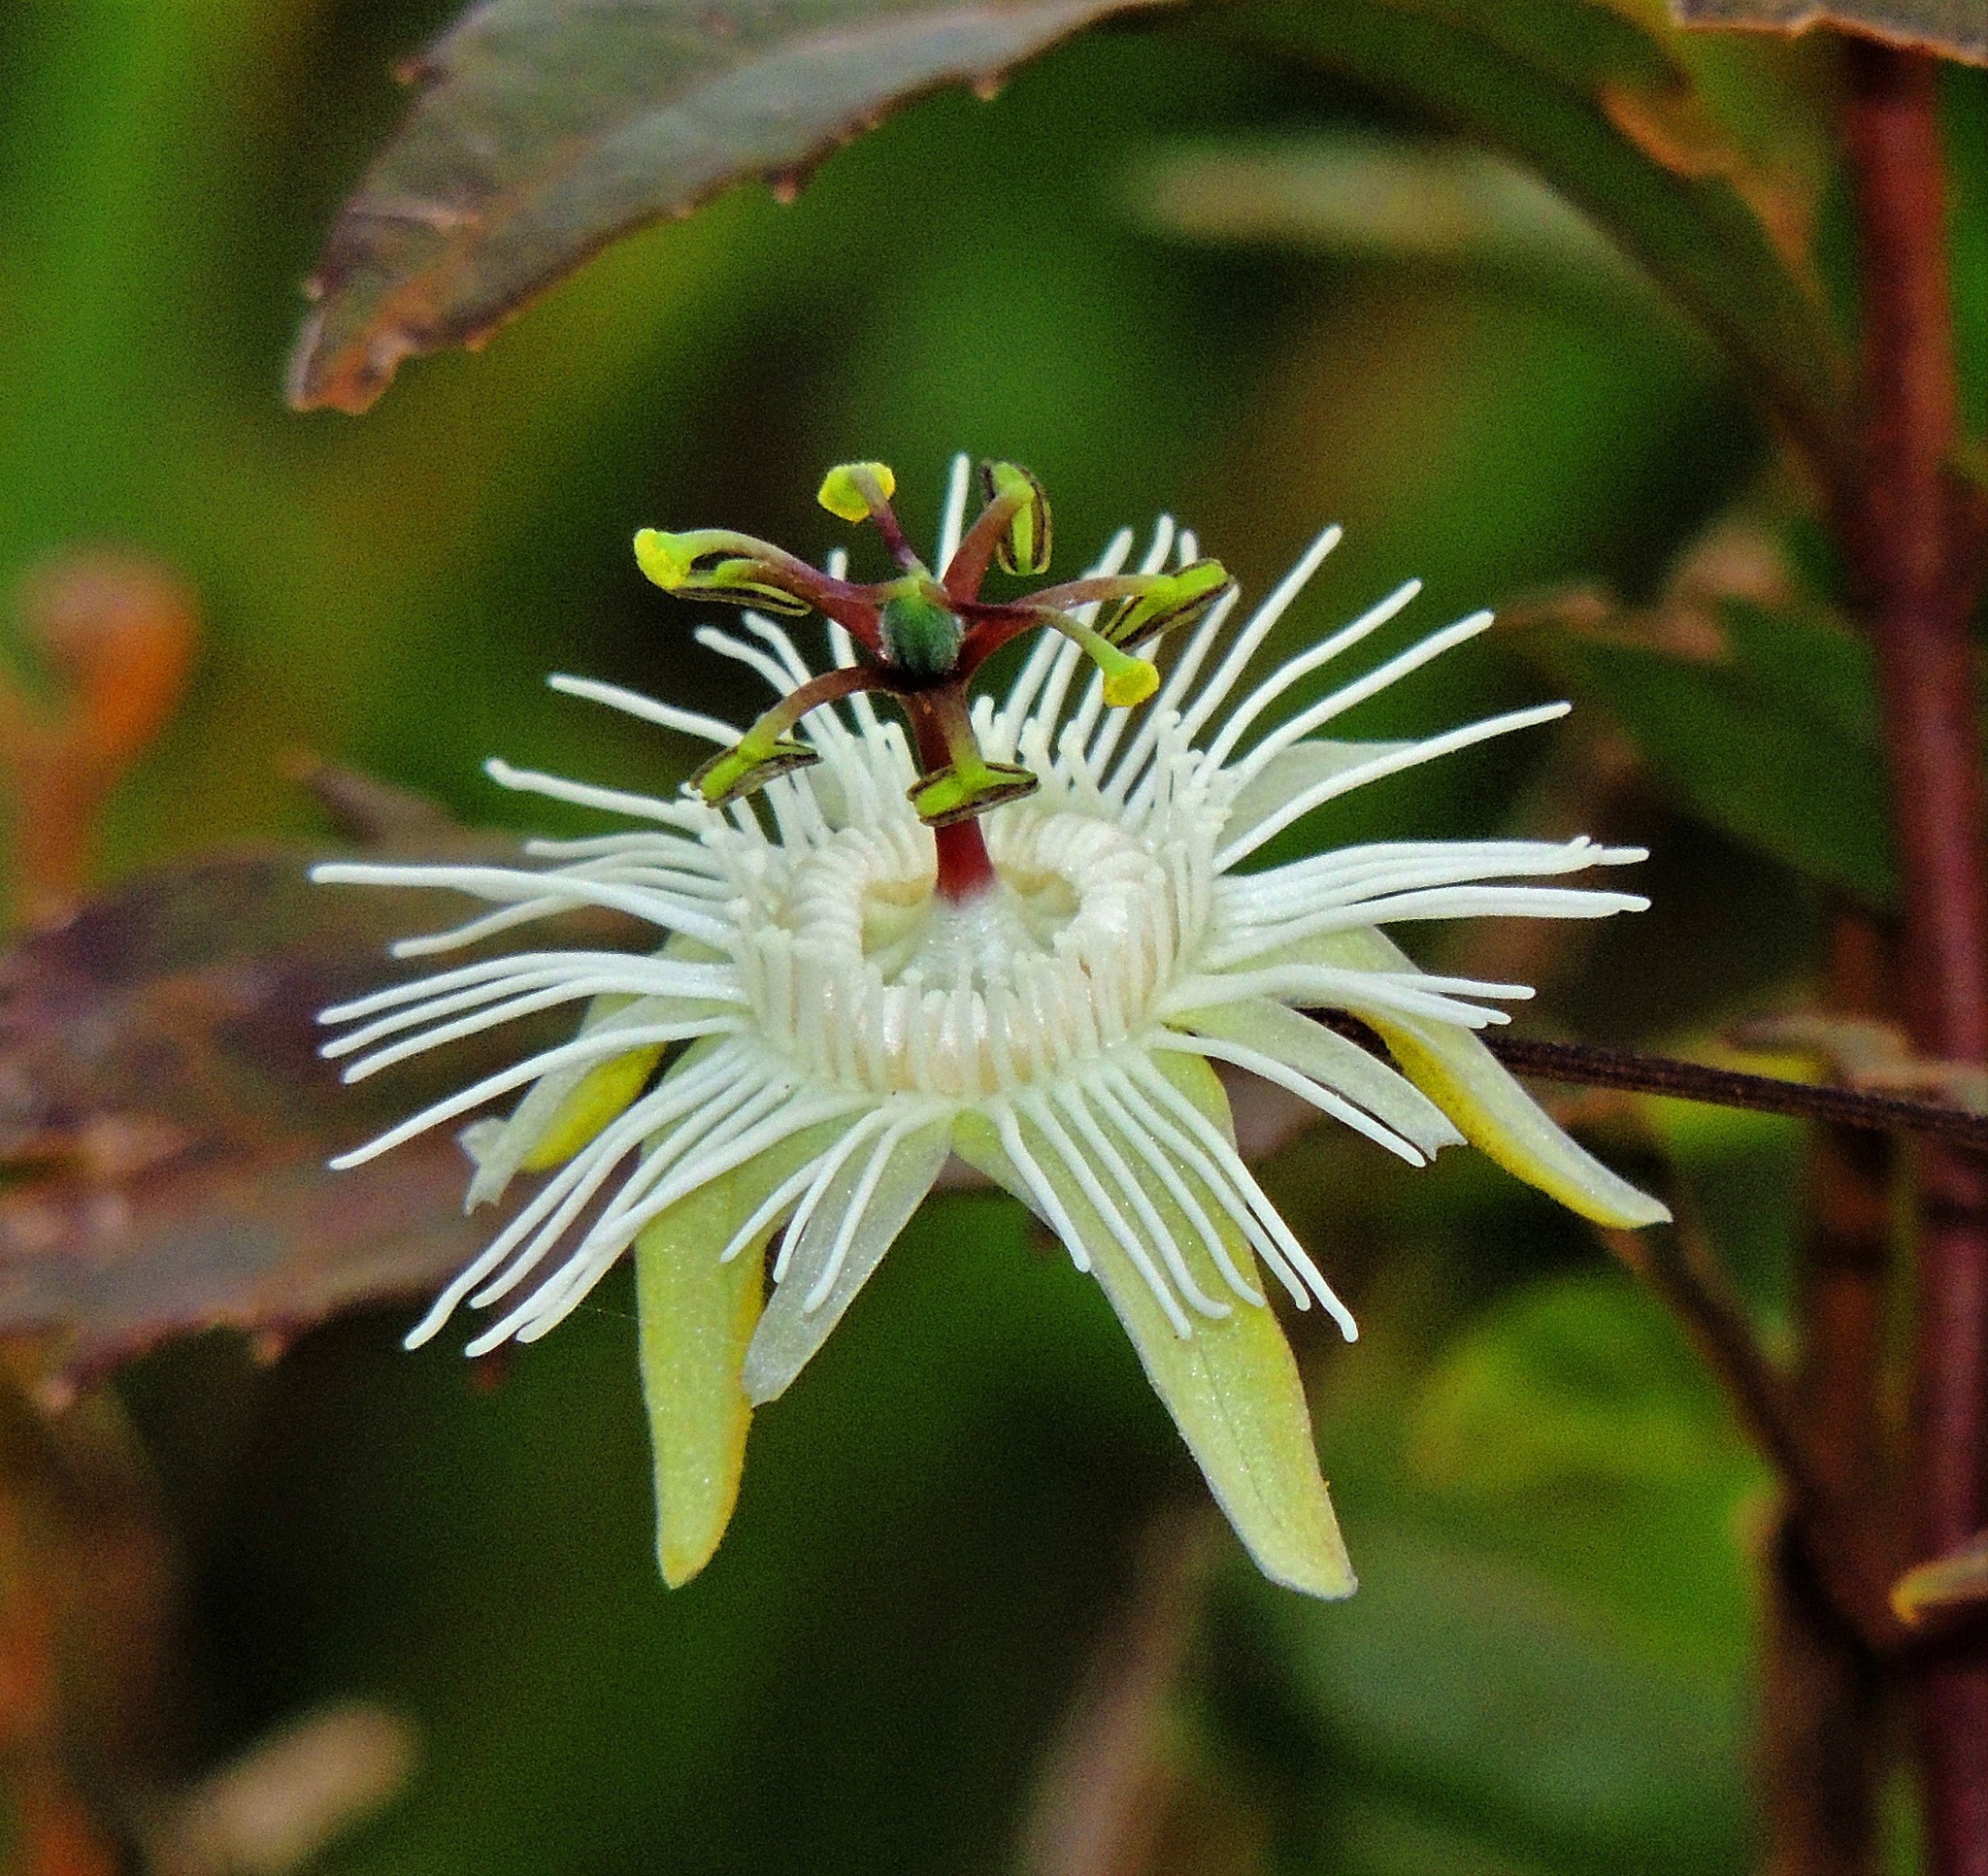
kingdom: Plantae
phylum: Tracheophyta
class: Magnoliopsida
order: Malpighiales
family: Passifloraceae
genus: Passiflora
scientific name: Passiflora misera
